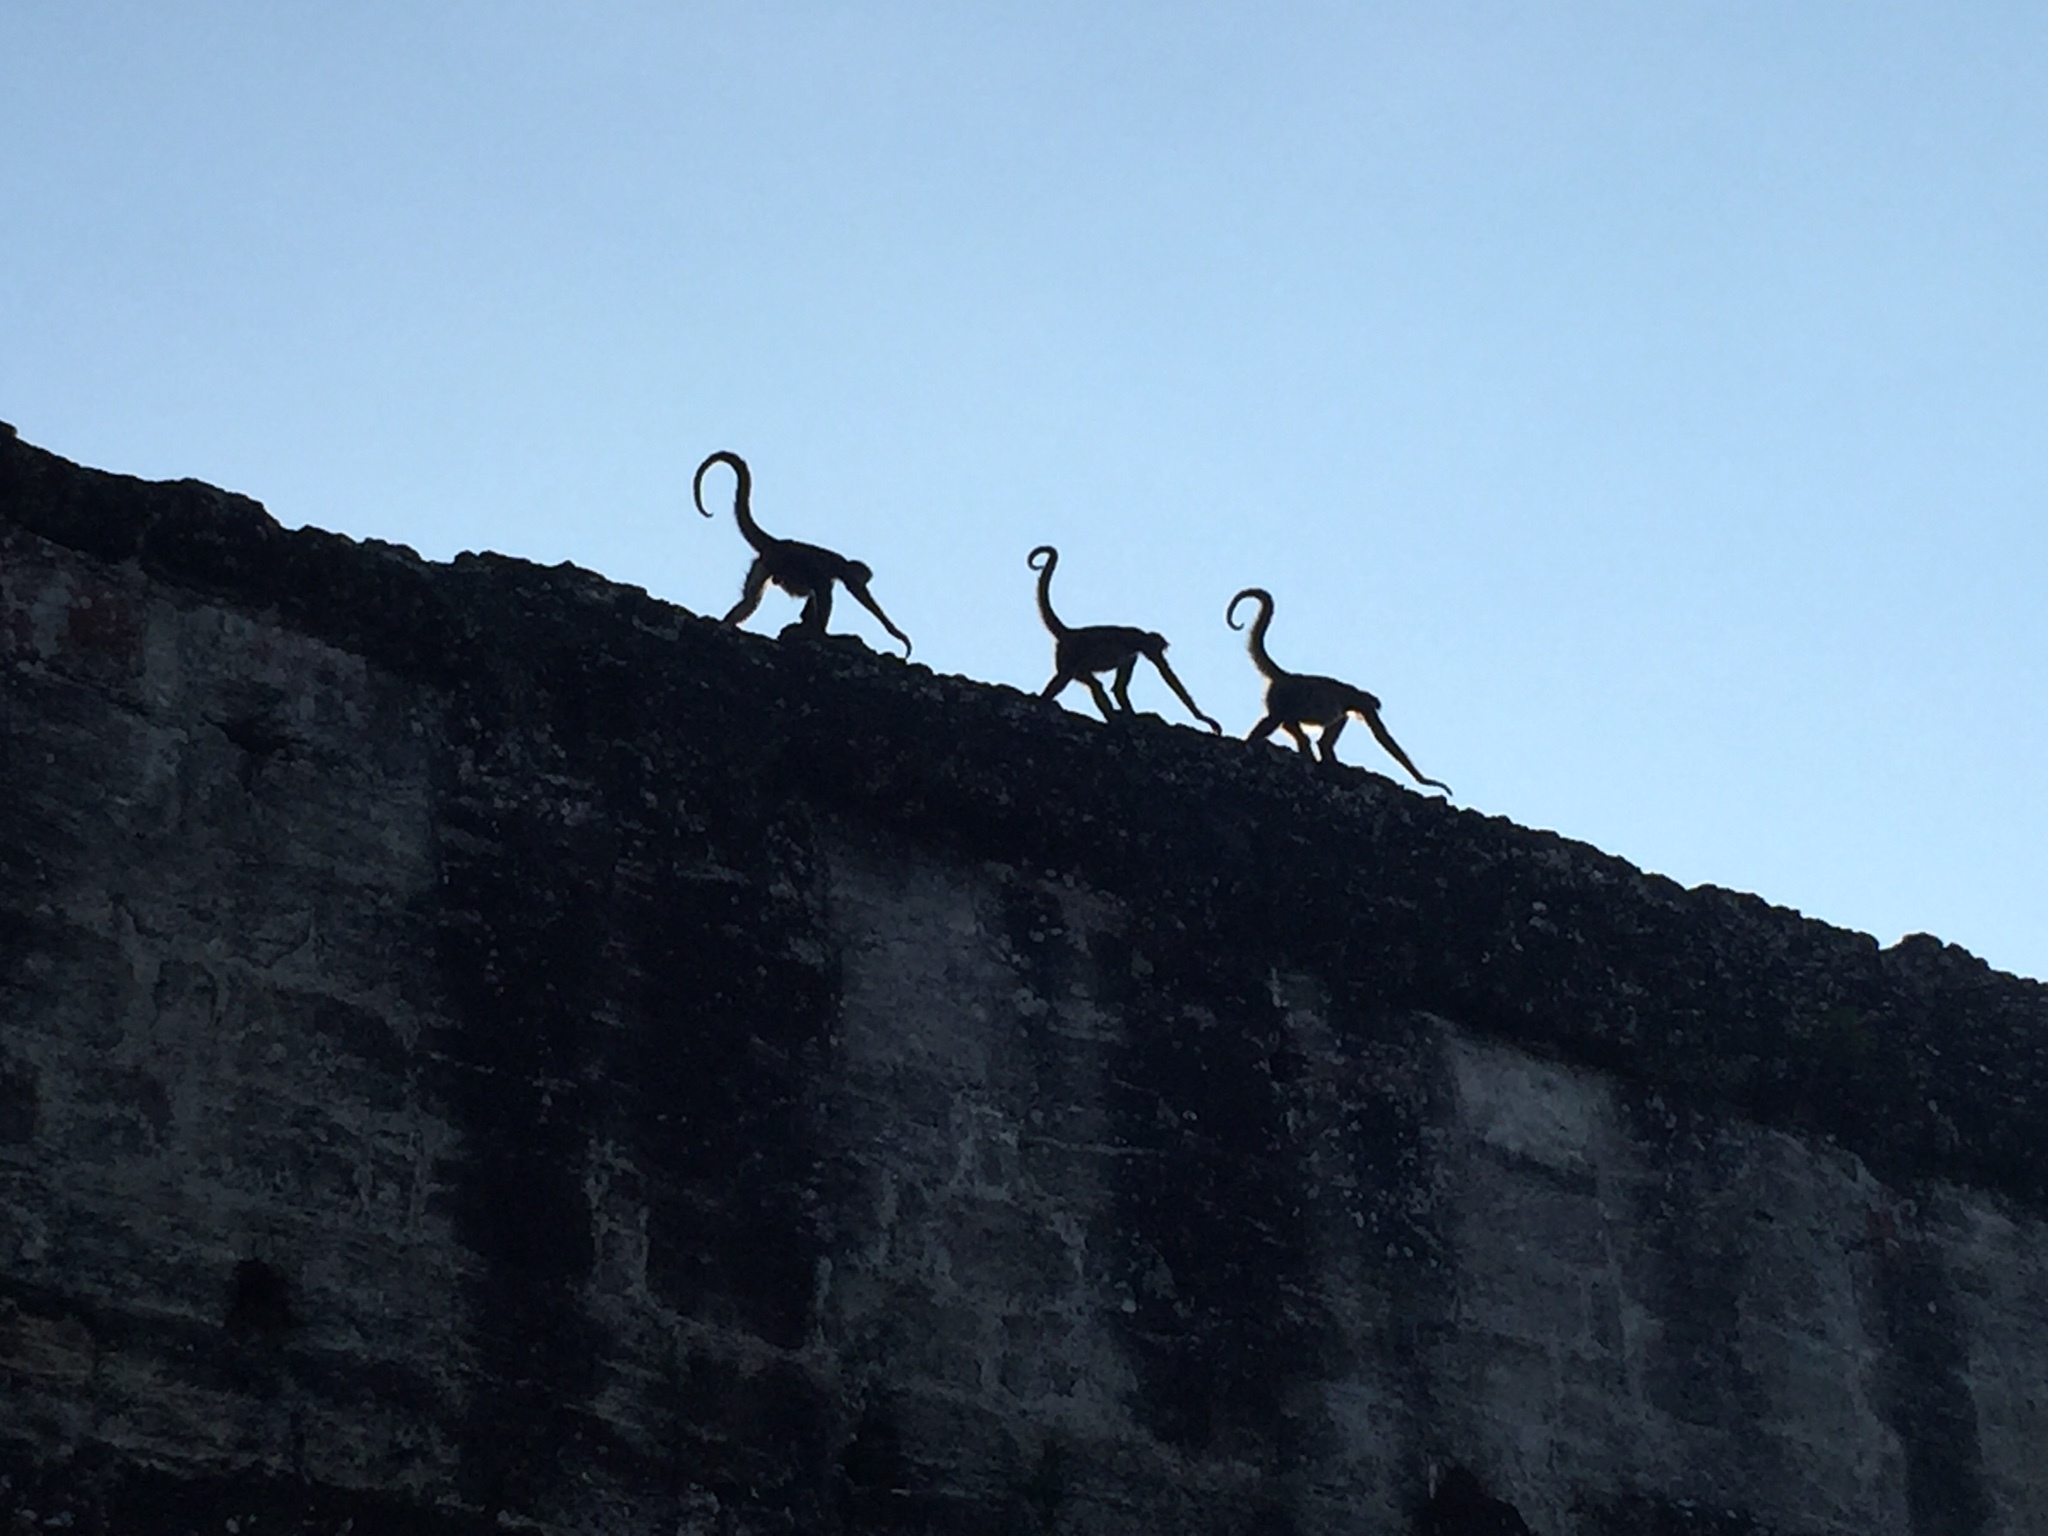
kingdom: Animalia
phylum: Chordata
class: Mammalia
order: Primates
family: Atelidae
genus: Ateles
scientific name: Ateles geoffroyi
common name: Black-handed spider monkey
